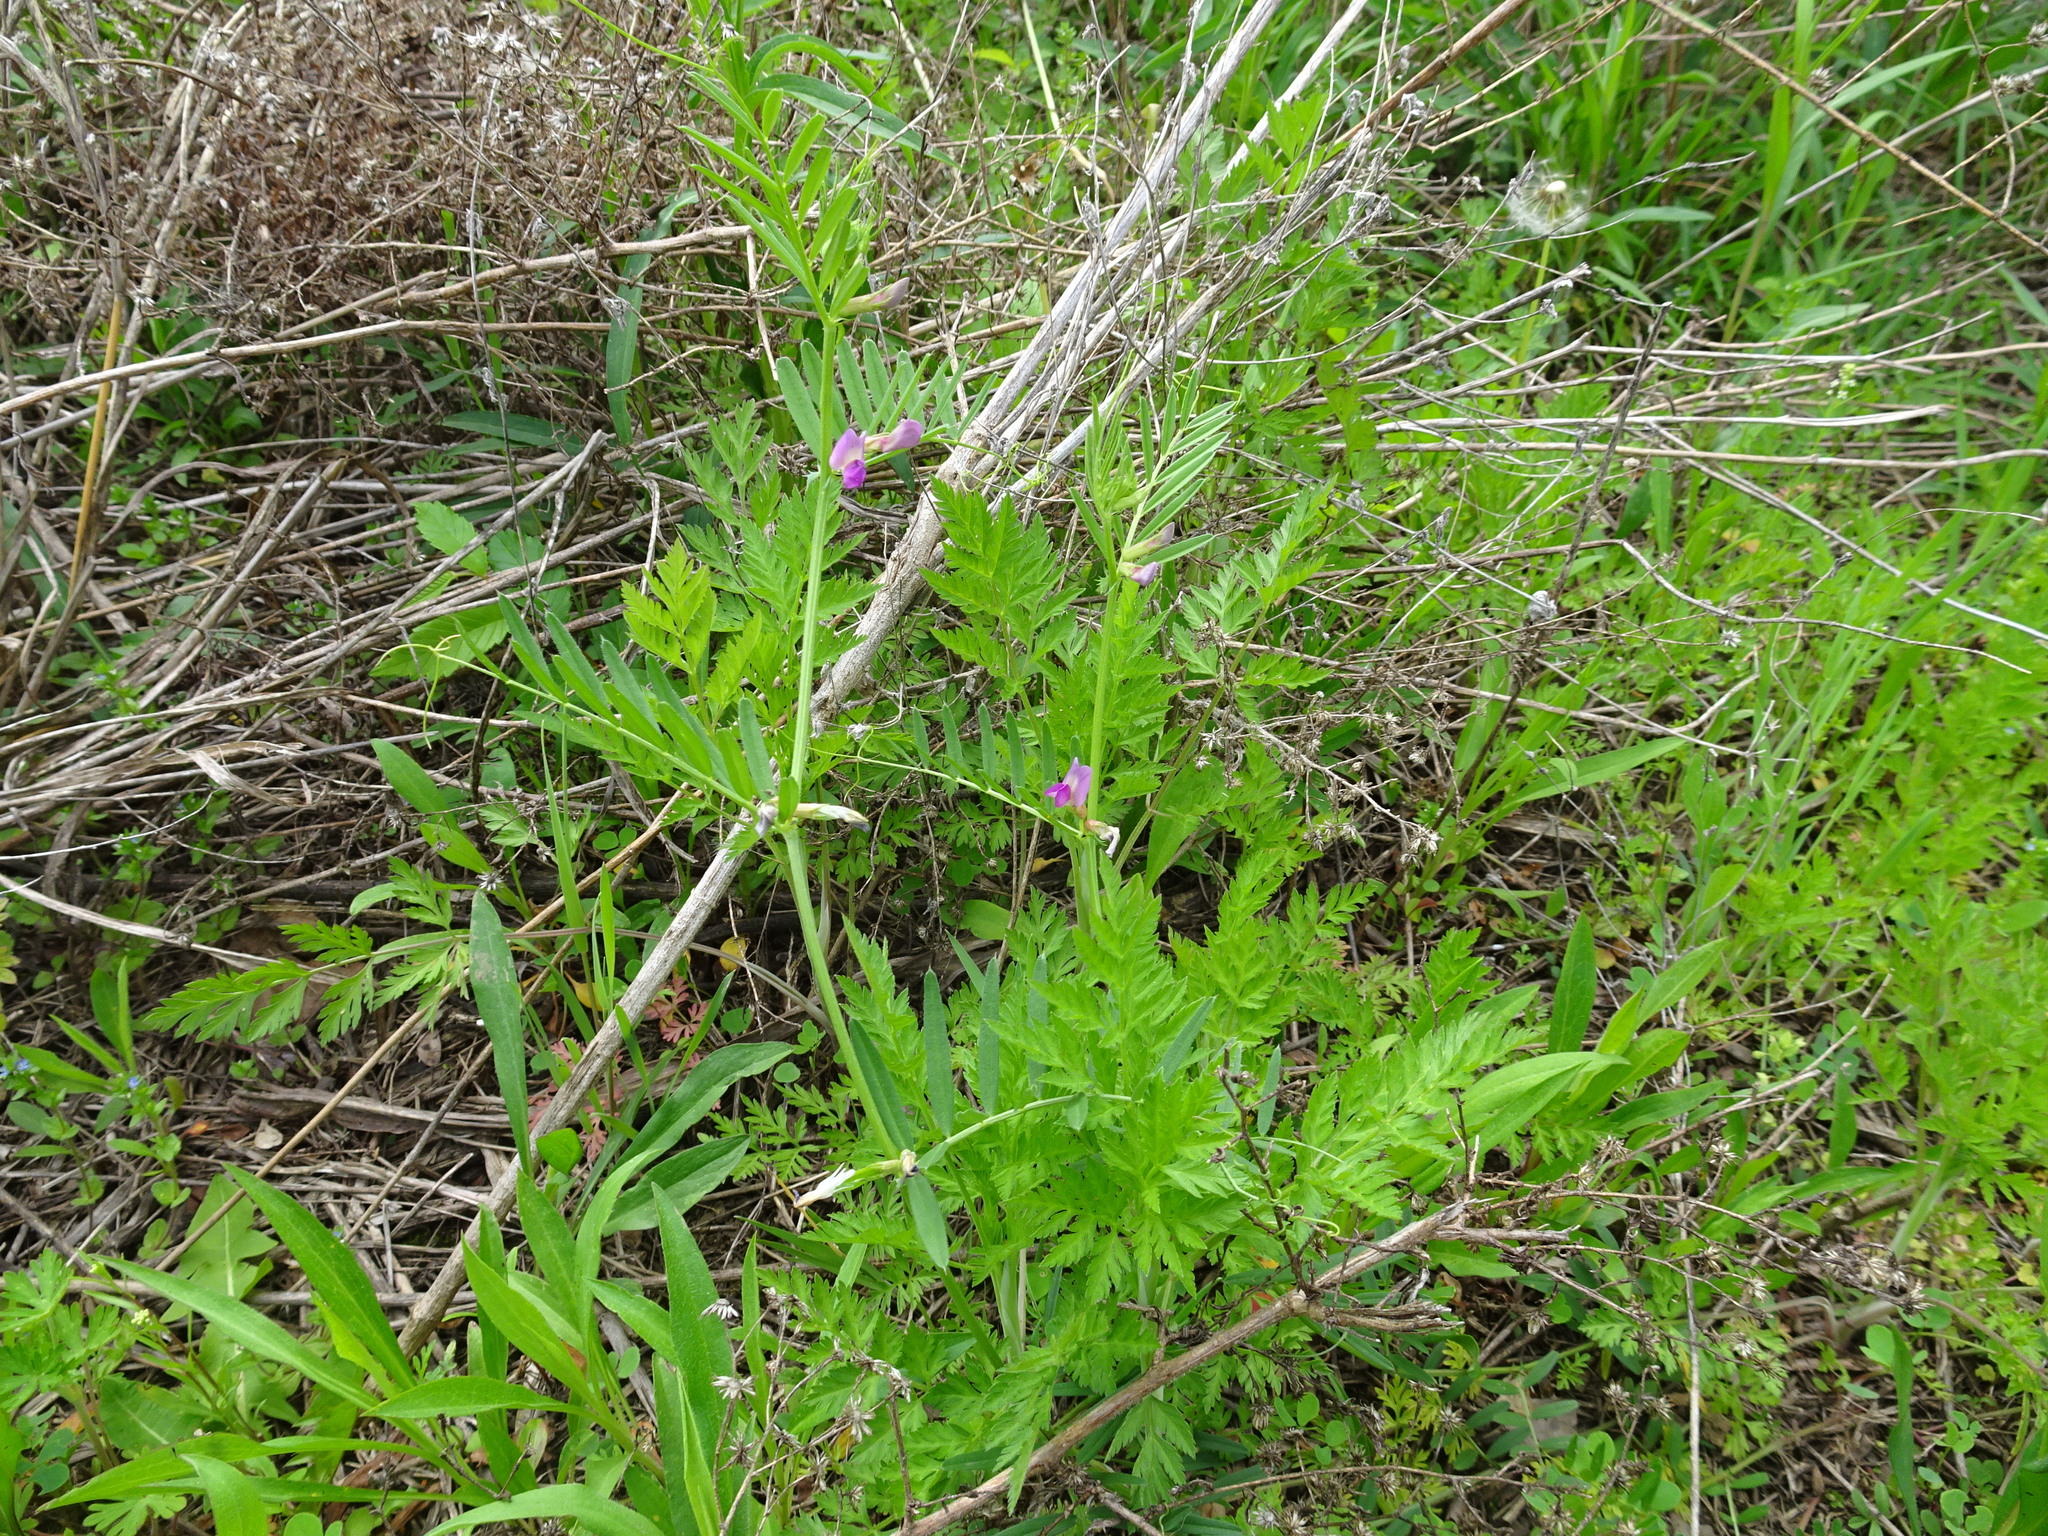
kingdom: Plantae
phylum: Tracheophyta
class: Magnoliopsida
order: Fabales
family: Fabaceae
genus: Vicia
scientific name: Vicia sativa
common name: Garden vetch
